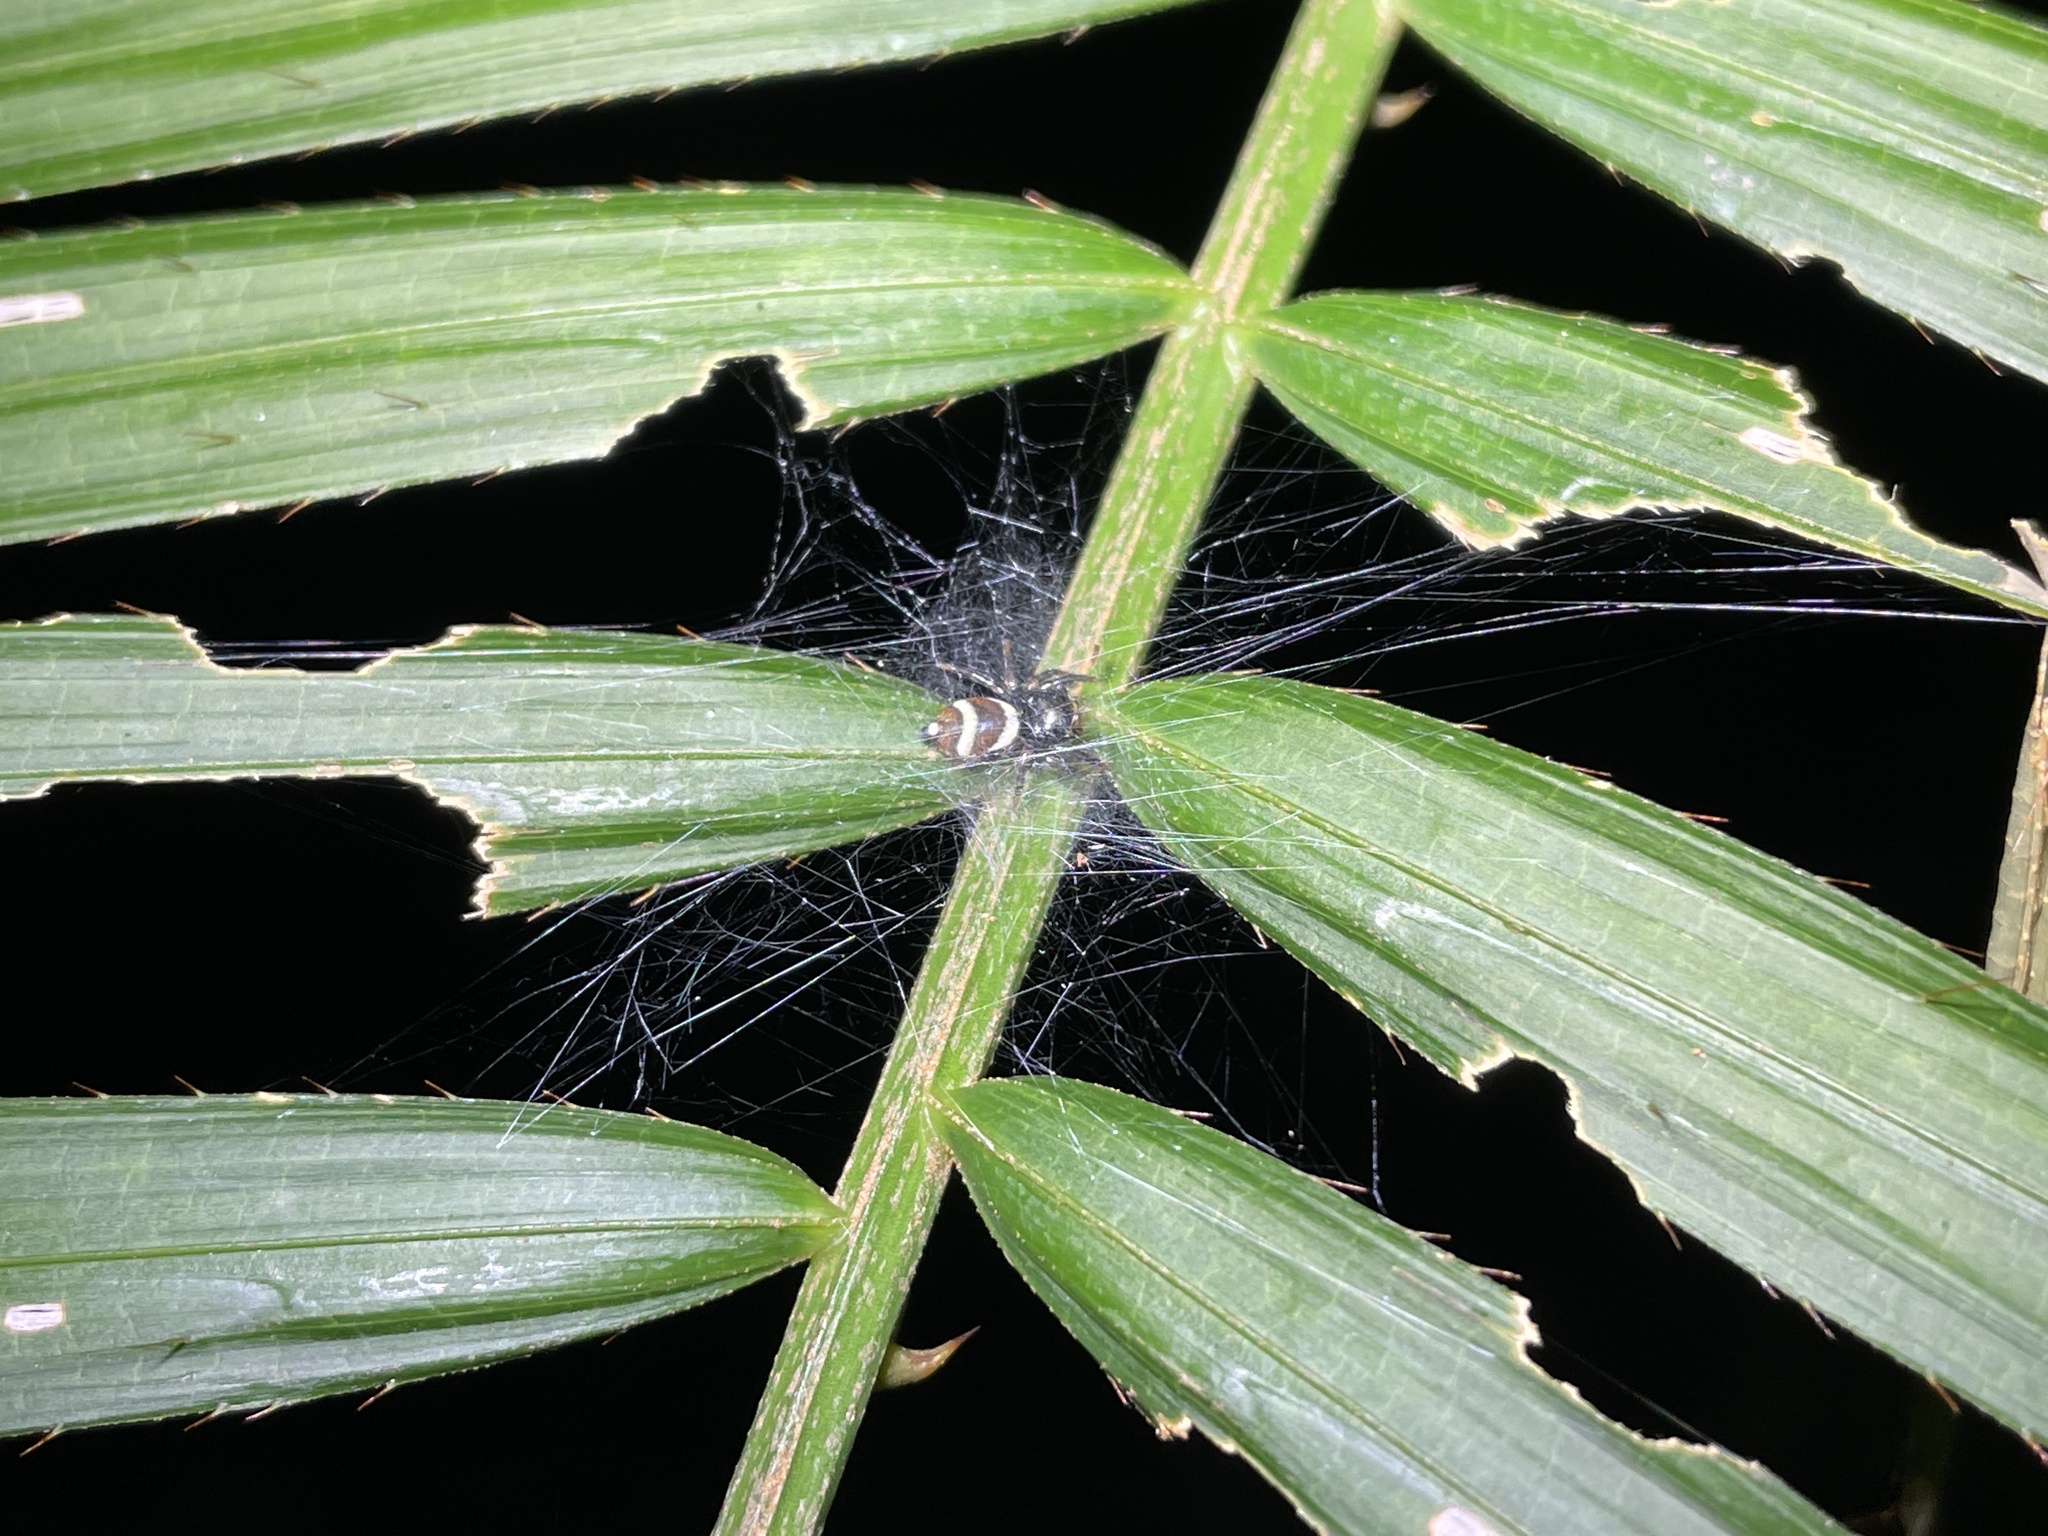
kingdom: Animalia
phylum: Arthropoda
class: Arachnida
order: Araneae
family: Salticidae
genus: Ptocasius
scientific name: Ptocasius strupifer
